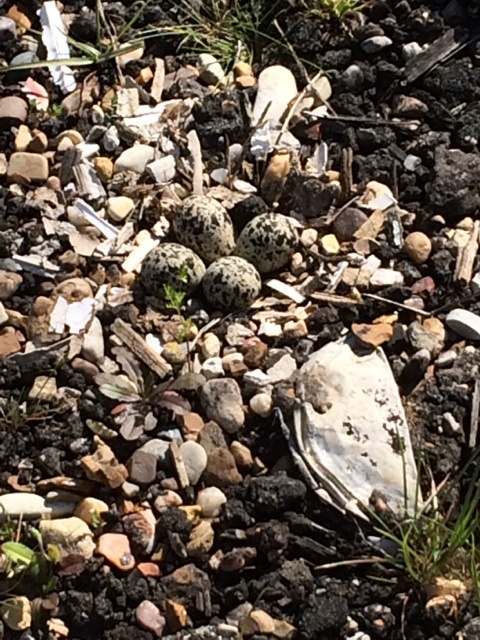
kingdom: Animalia
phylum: Chordata
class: Aves
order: Charadriiformes
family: Charadriidae
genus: Charadrius
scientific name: Charadrius vociferus
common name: Killdeer
